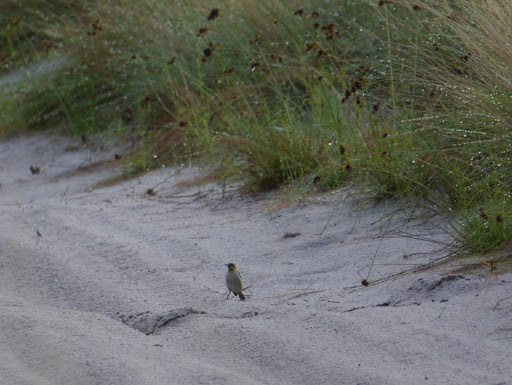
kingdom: Animalia
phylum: Chordata
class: Aves
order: Passeriformes
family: Nectariniidae
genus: Chalcomitra
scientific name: Chalcomitra fuliginosa
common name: Carmelite sunbird
